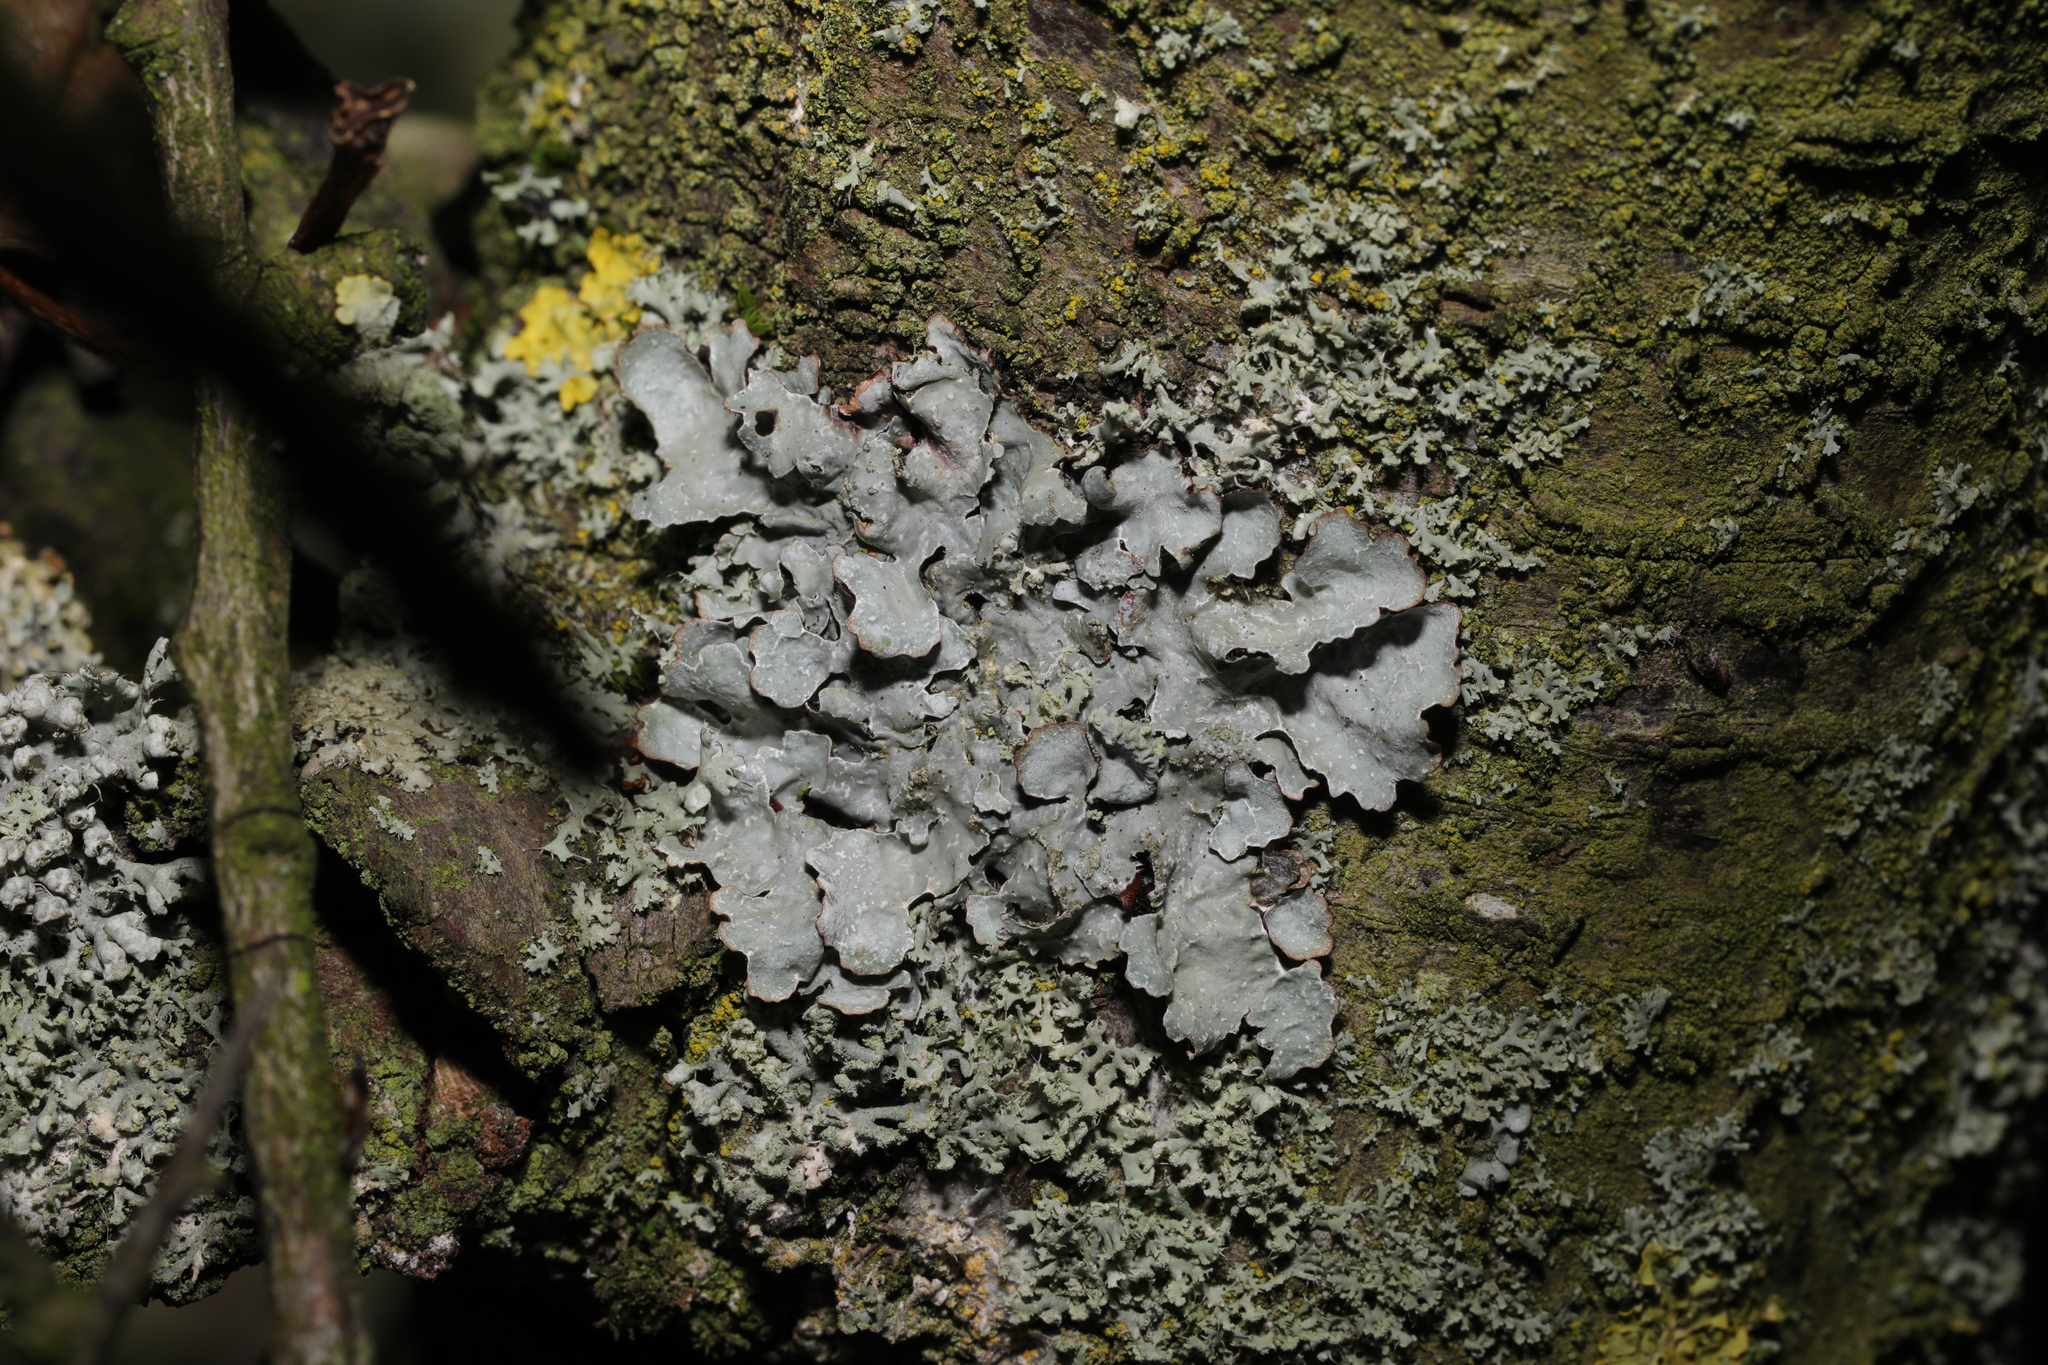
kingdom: Fungi
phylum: Ascomycota
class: Lecanoromycetes
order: Lecanorales
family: Parmeliaceae
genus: Parmelia
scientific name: Parmelia sulcata
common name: Netted shield lichen
